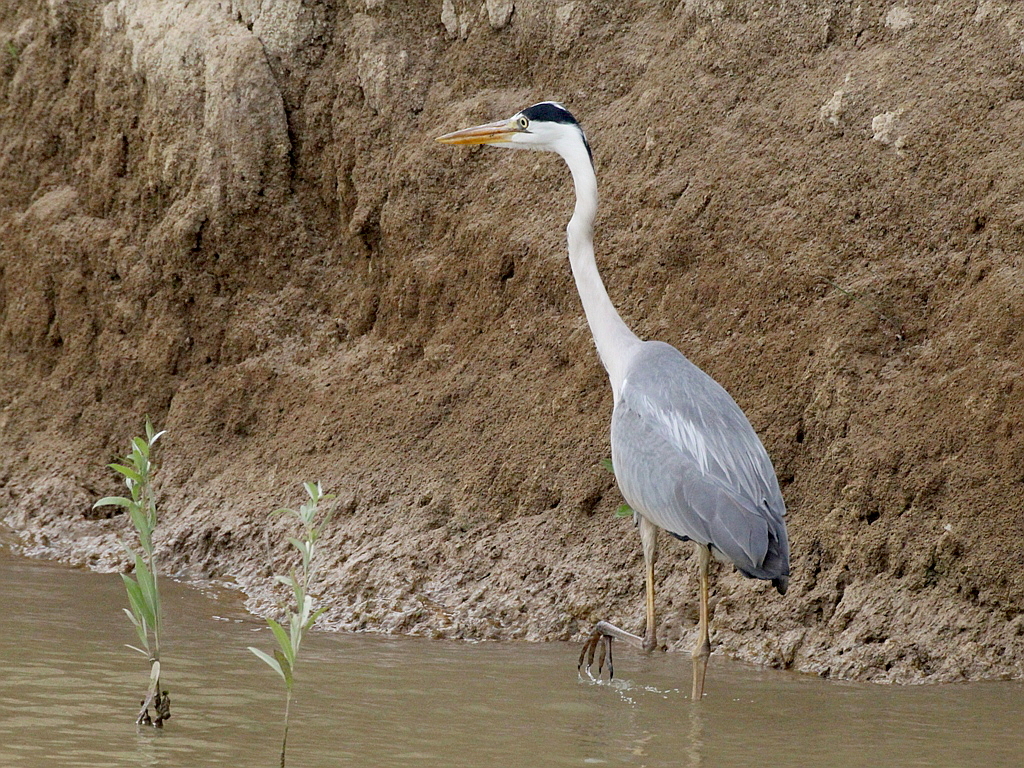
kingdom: Animalia
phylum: Chordata
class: Aves
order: Pelecaniformes
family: Ardeidae
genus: Ardea
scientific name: Ardea cinerea
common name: Grey heron
